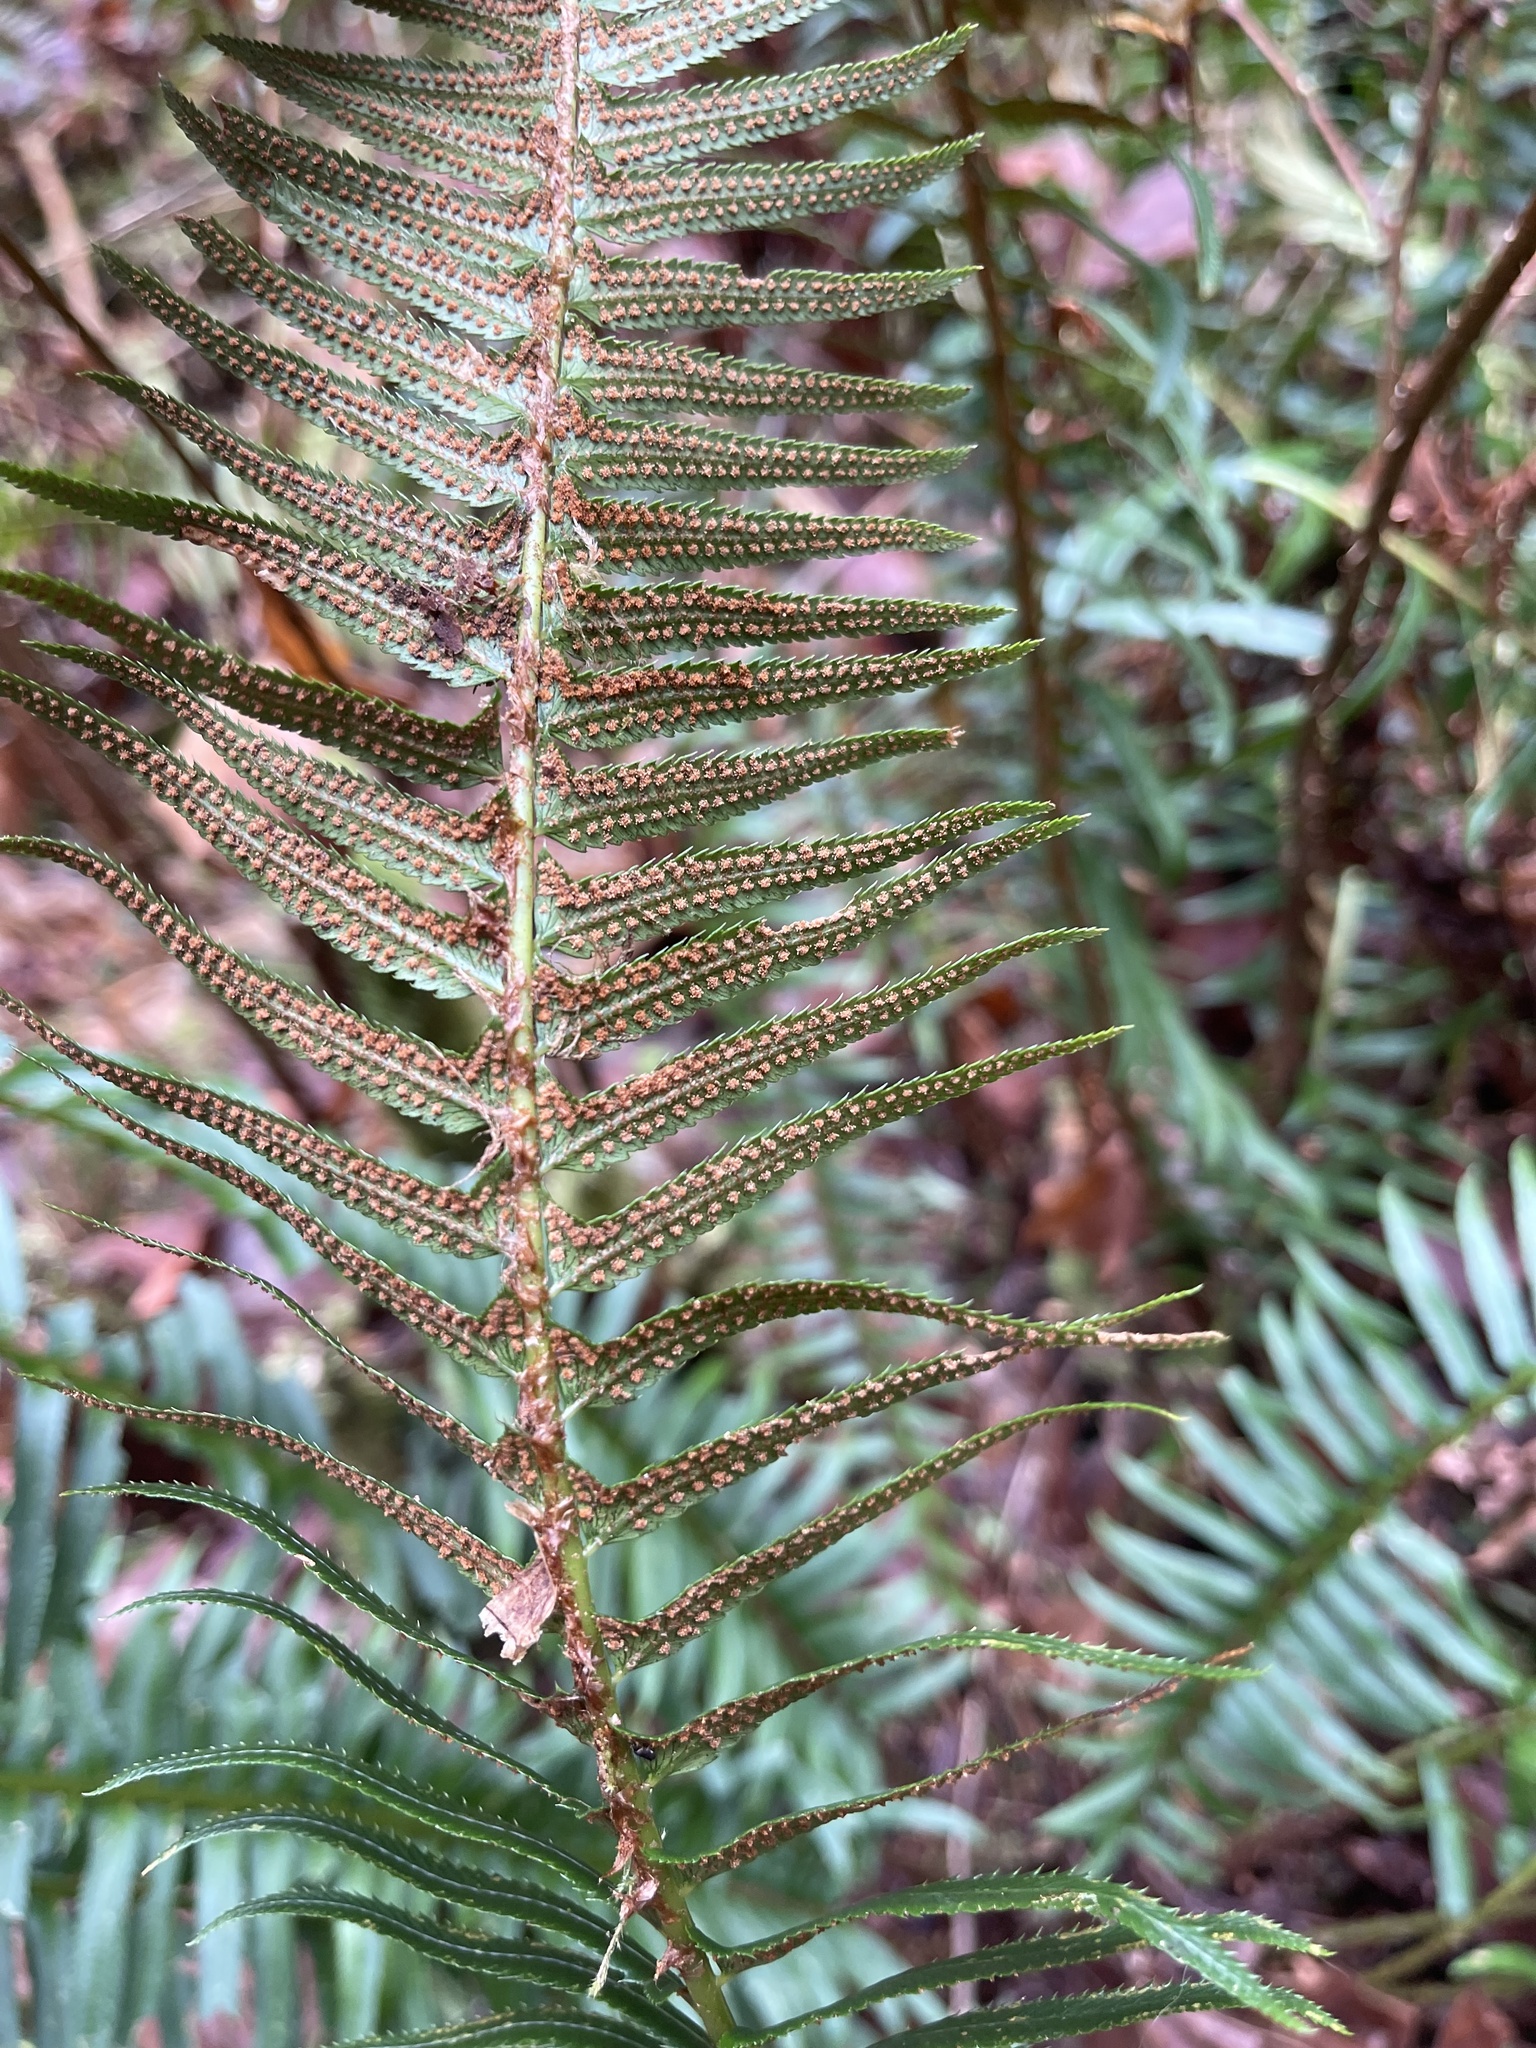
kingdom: Plantae
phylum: Tracheophyta
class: Polypodiopsida
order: Polypodiales
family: Dryopteridaceae
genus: Polystichum
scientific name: Polystichum munitum
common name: Western sword-fern
